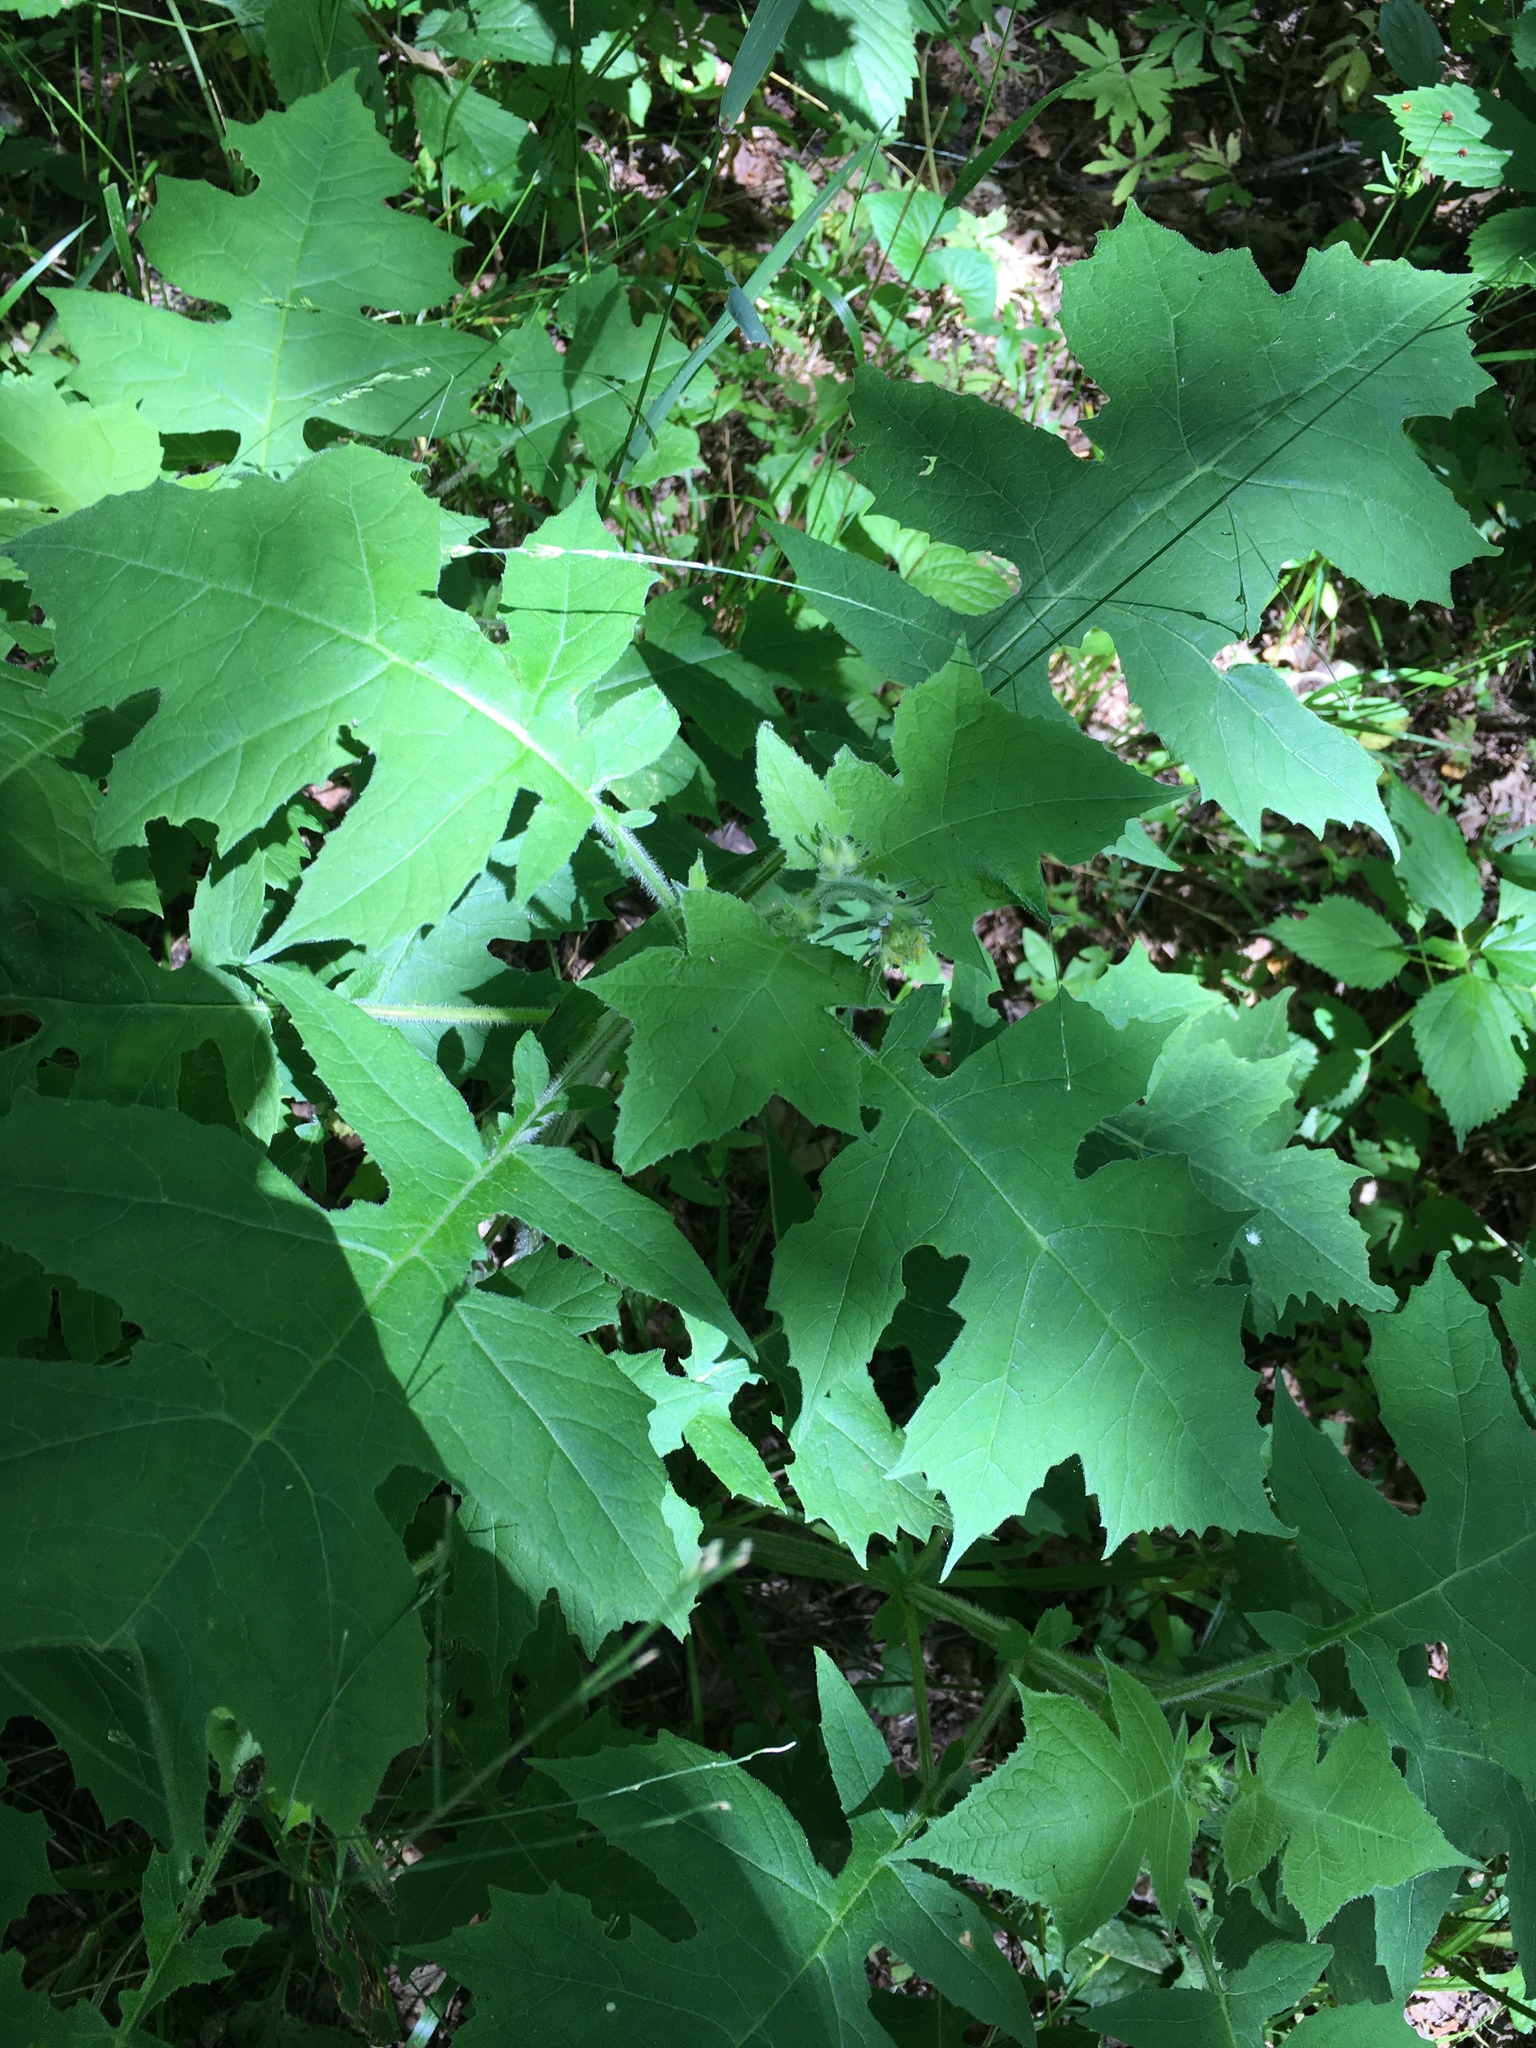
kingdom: Plantae
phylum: Tracheophyta
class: Magnoliopsida
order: Asterales
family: Asteraceae
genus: Polymnia
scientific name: Polymnia canadensis
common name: Pale-flowered leafcup
